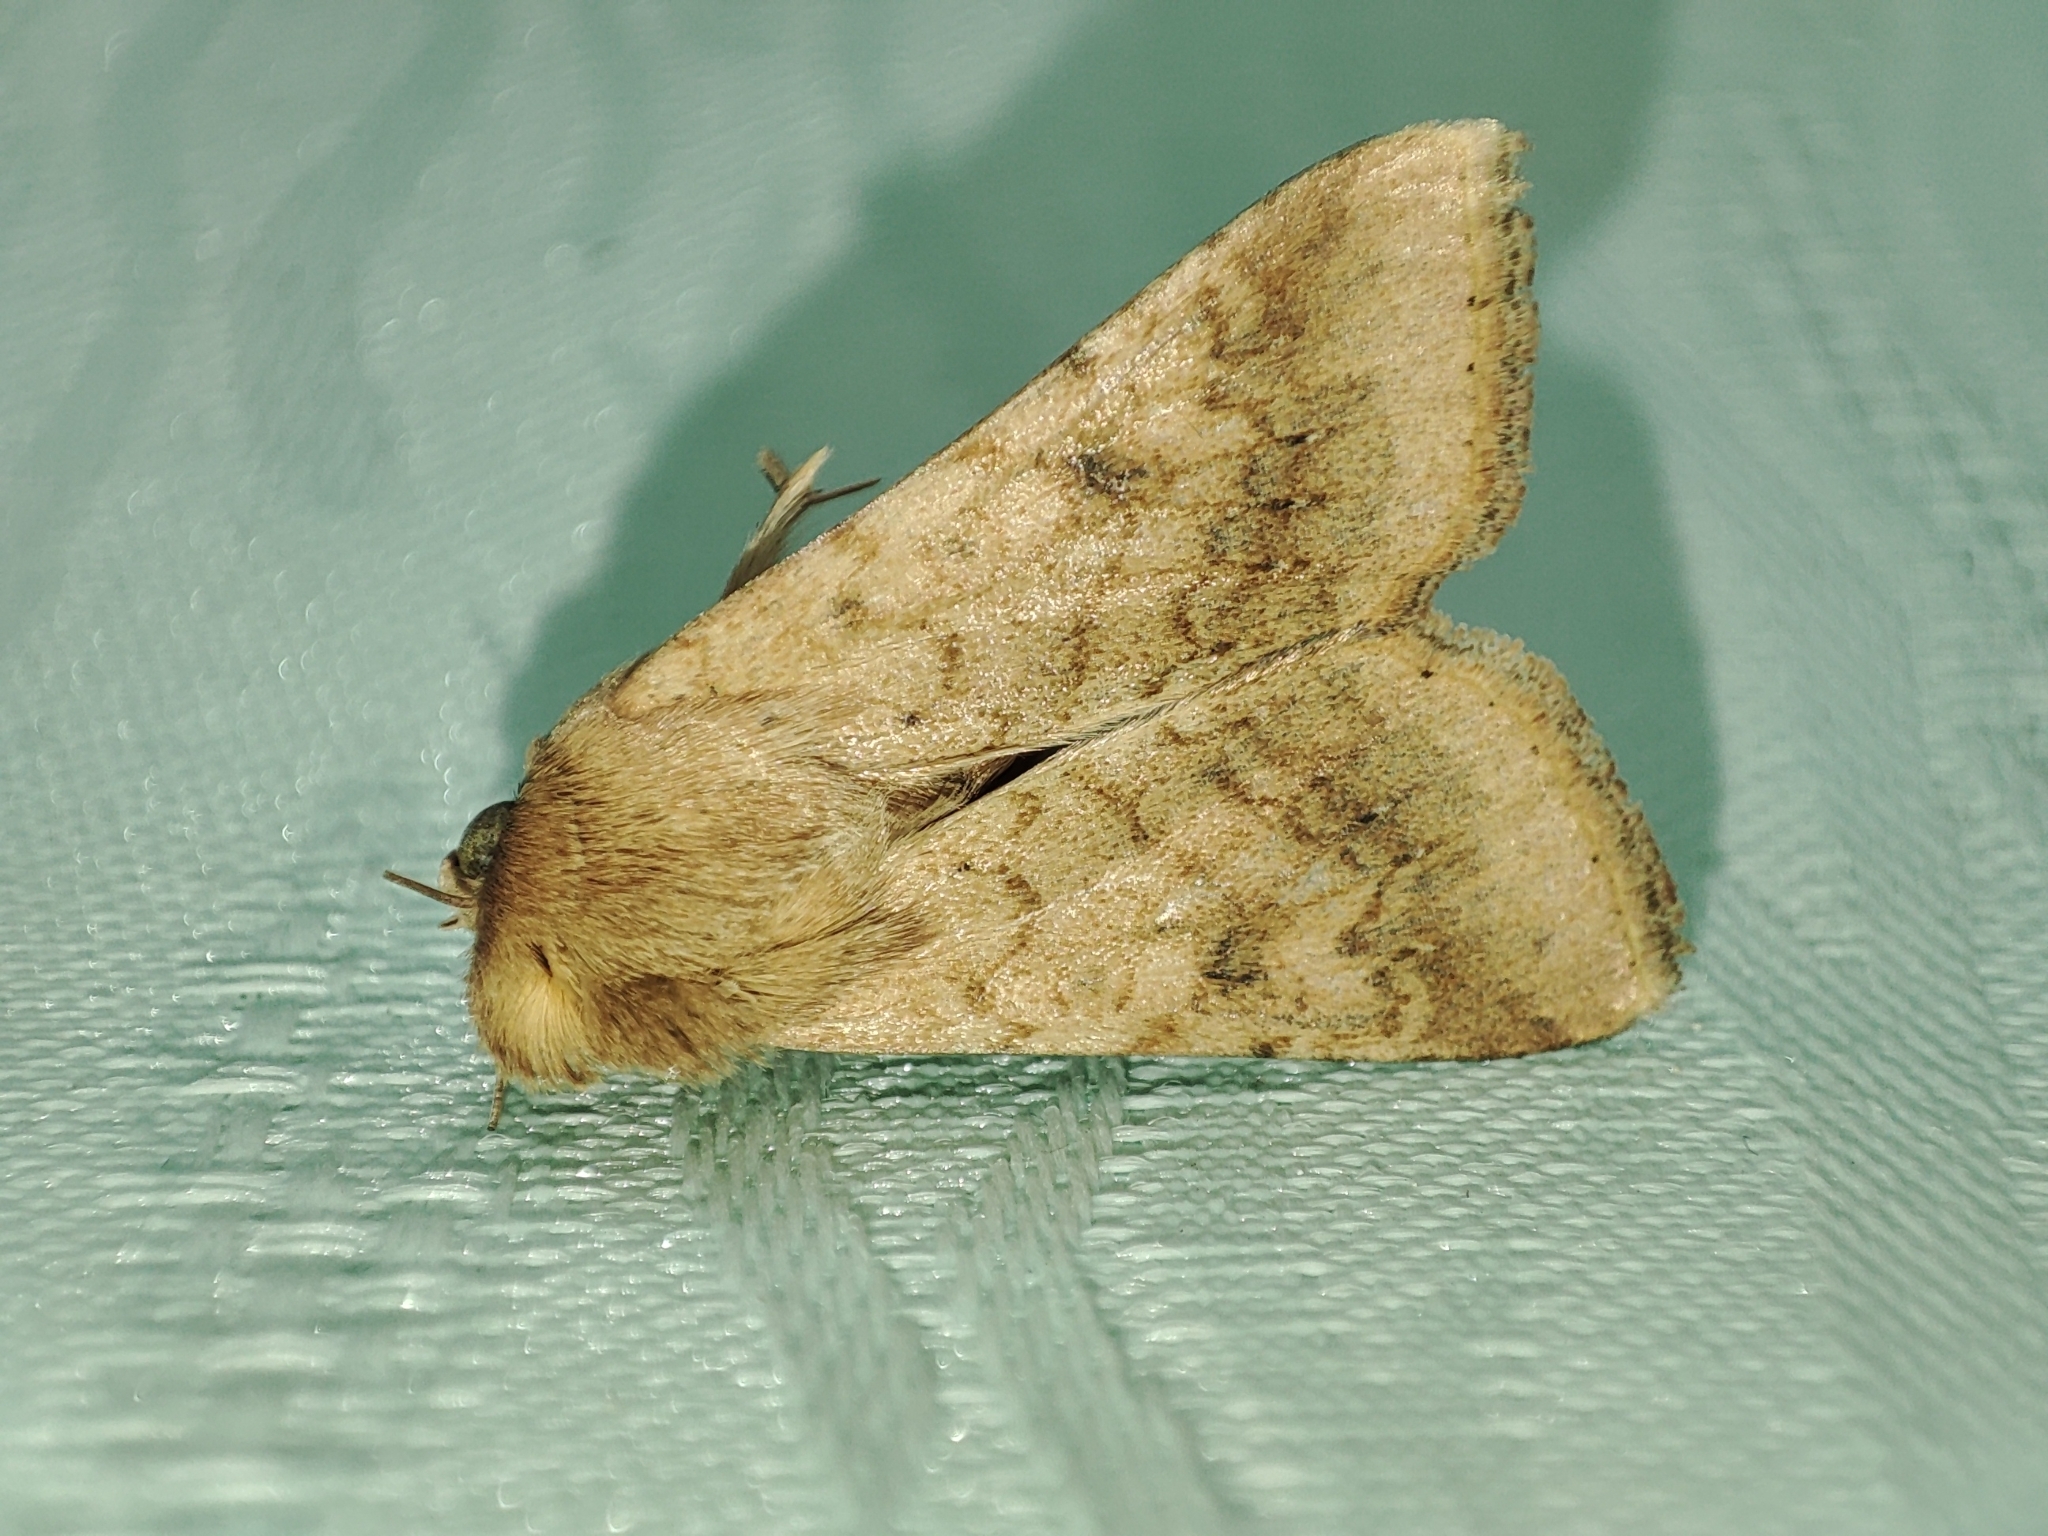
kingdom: Animalia
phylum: Arthropoda
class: Insecta
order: Lepidoptera
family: Noctuidae
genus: Helicoverpa
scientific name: Helicoverpa armigera
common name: Cotton bollworm
